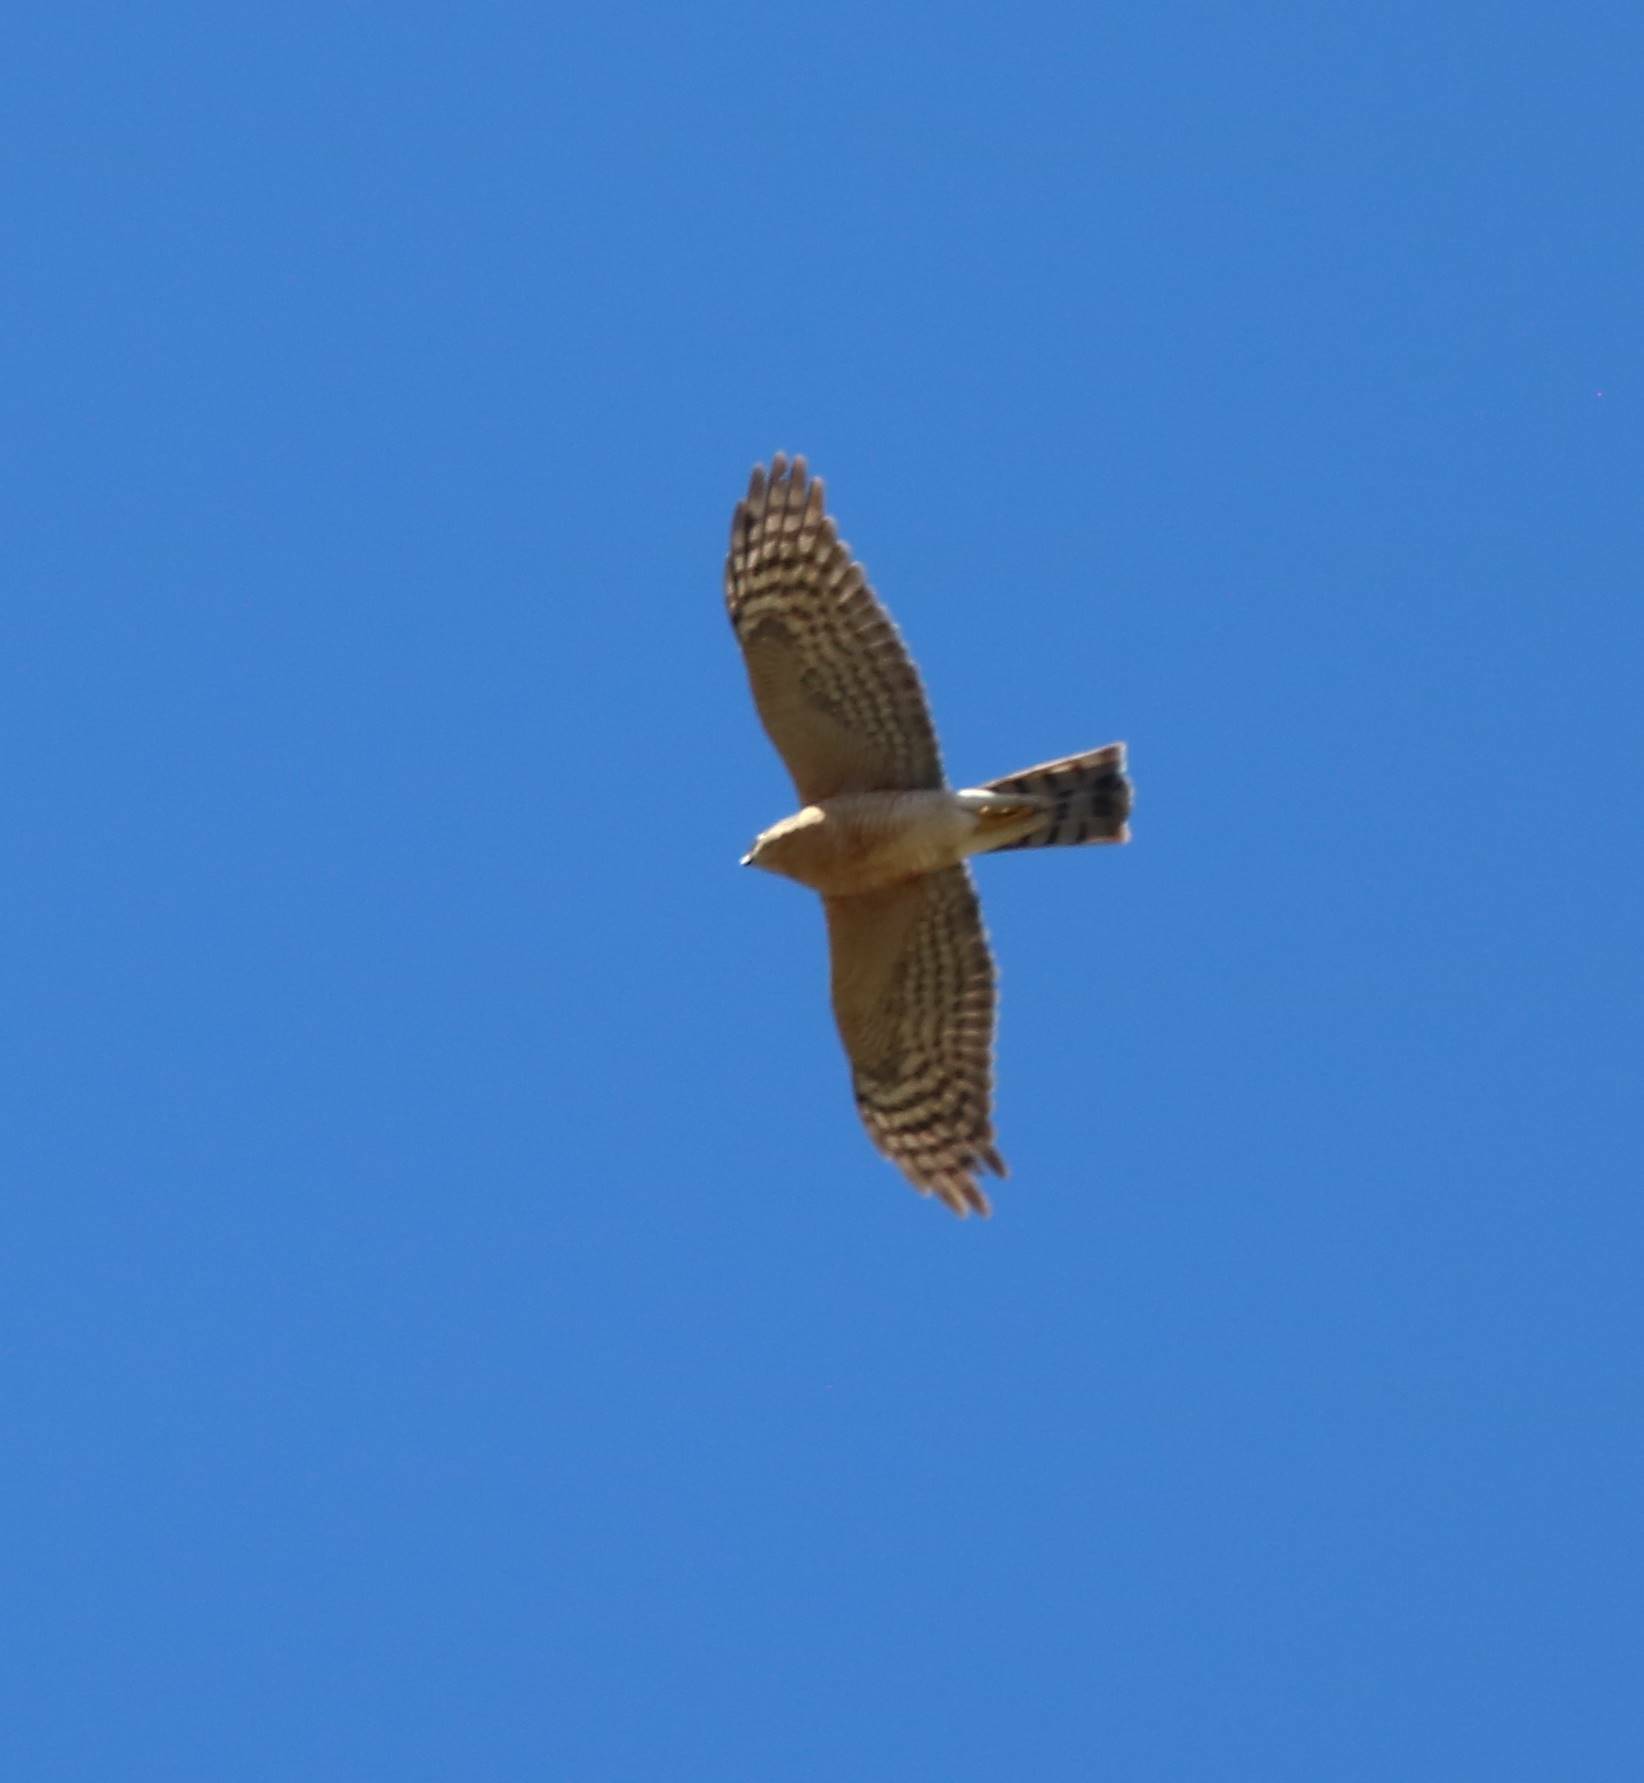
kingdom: Animalia
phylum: Chordata
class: Aves
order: Accipitriformes
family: Accipitridae
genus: Accipiter
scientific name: Accipiter nisus
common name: Eurasian sparrowhawk
